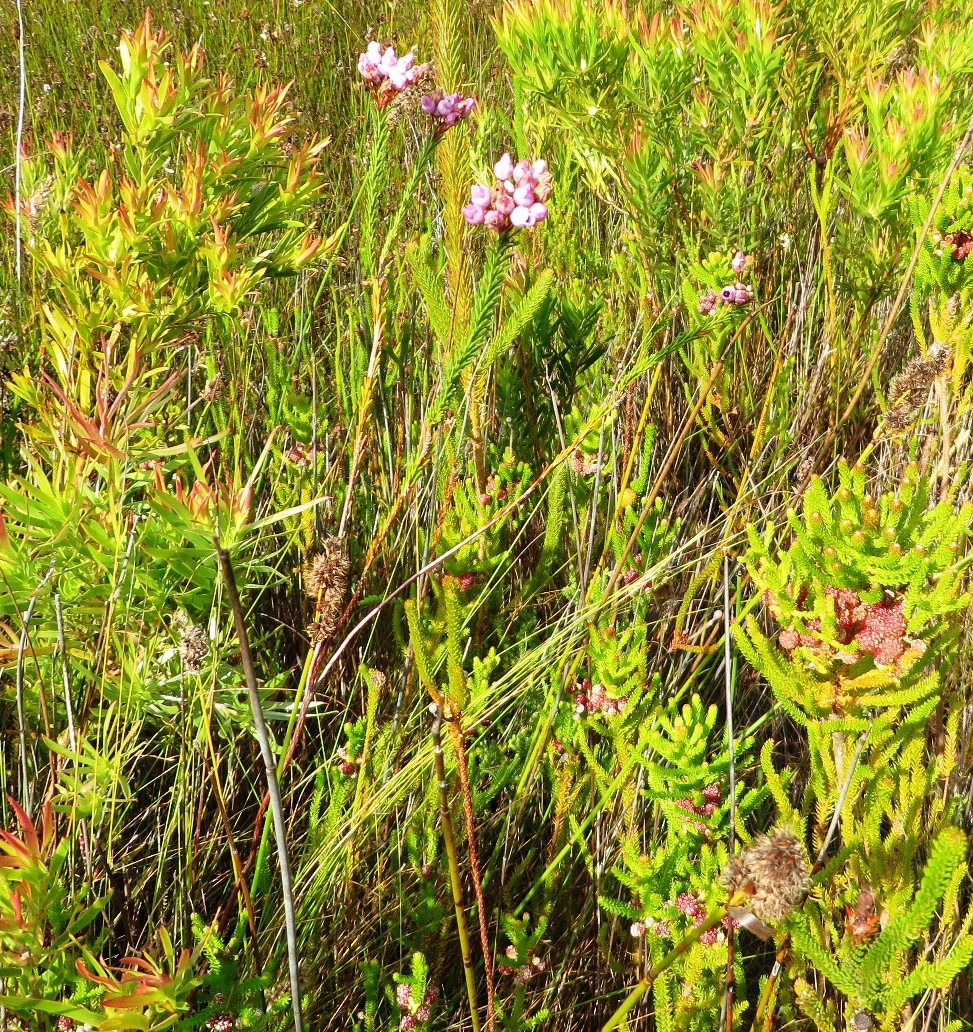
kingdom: Plantae
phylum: Tracheophyta
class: Magnoliopsida
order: Ericales
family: Ericaceae
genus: Erica
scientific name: Erica obliqua
